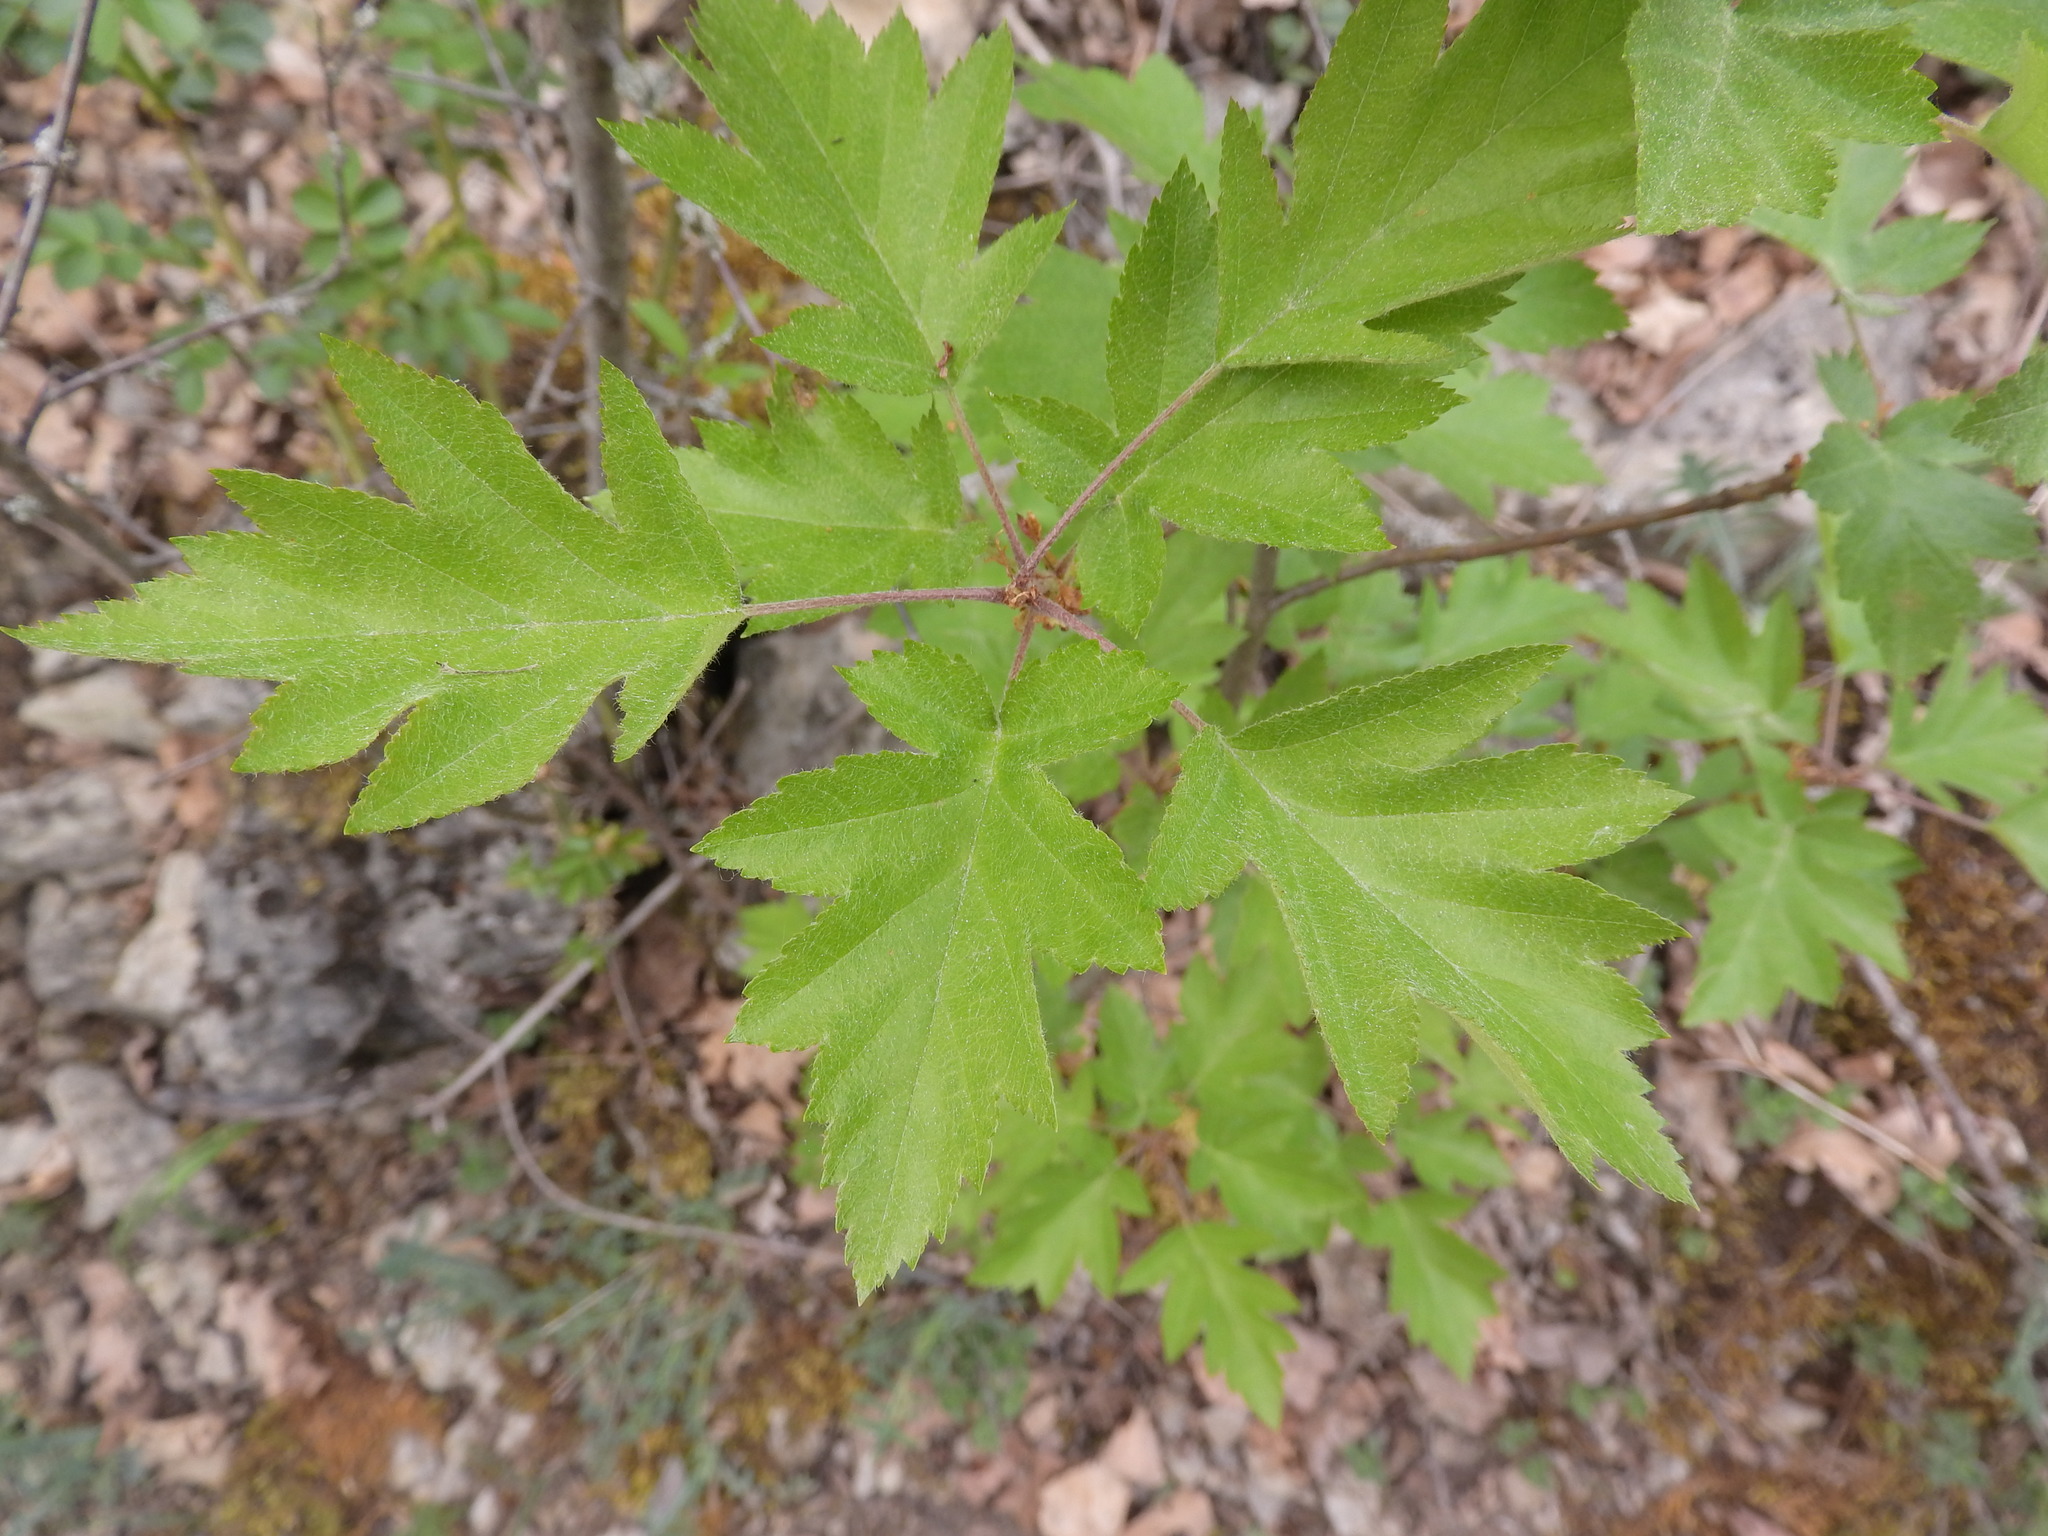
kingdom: Plantae
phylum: Tracheophyta
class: Magnoliopsida
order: Rosales
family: Rosaceae
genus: Torminalis
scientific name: Torminalis glaberrima
